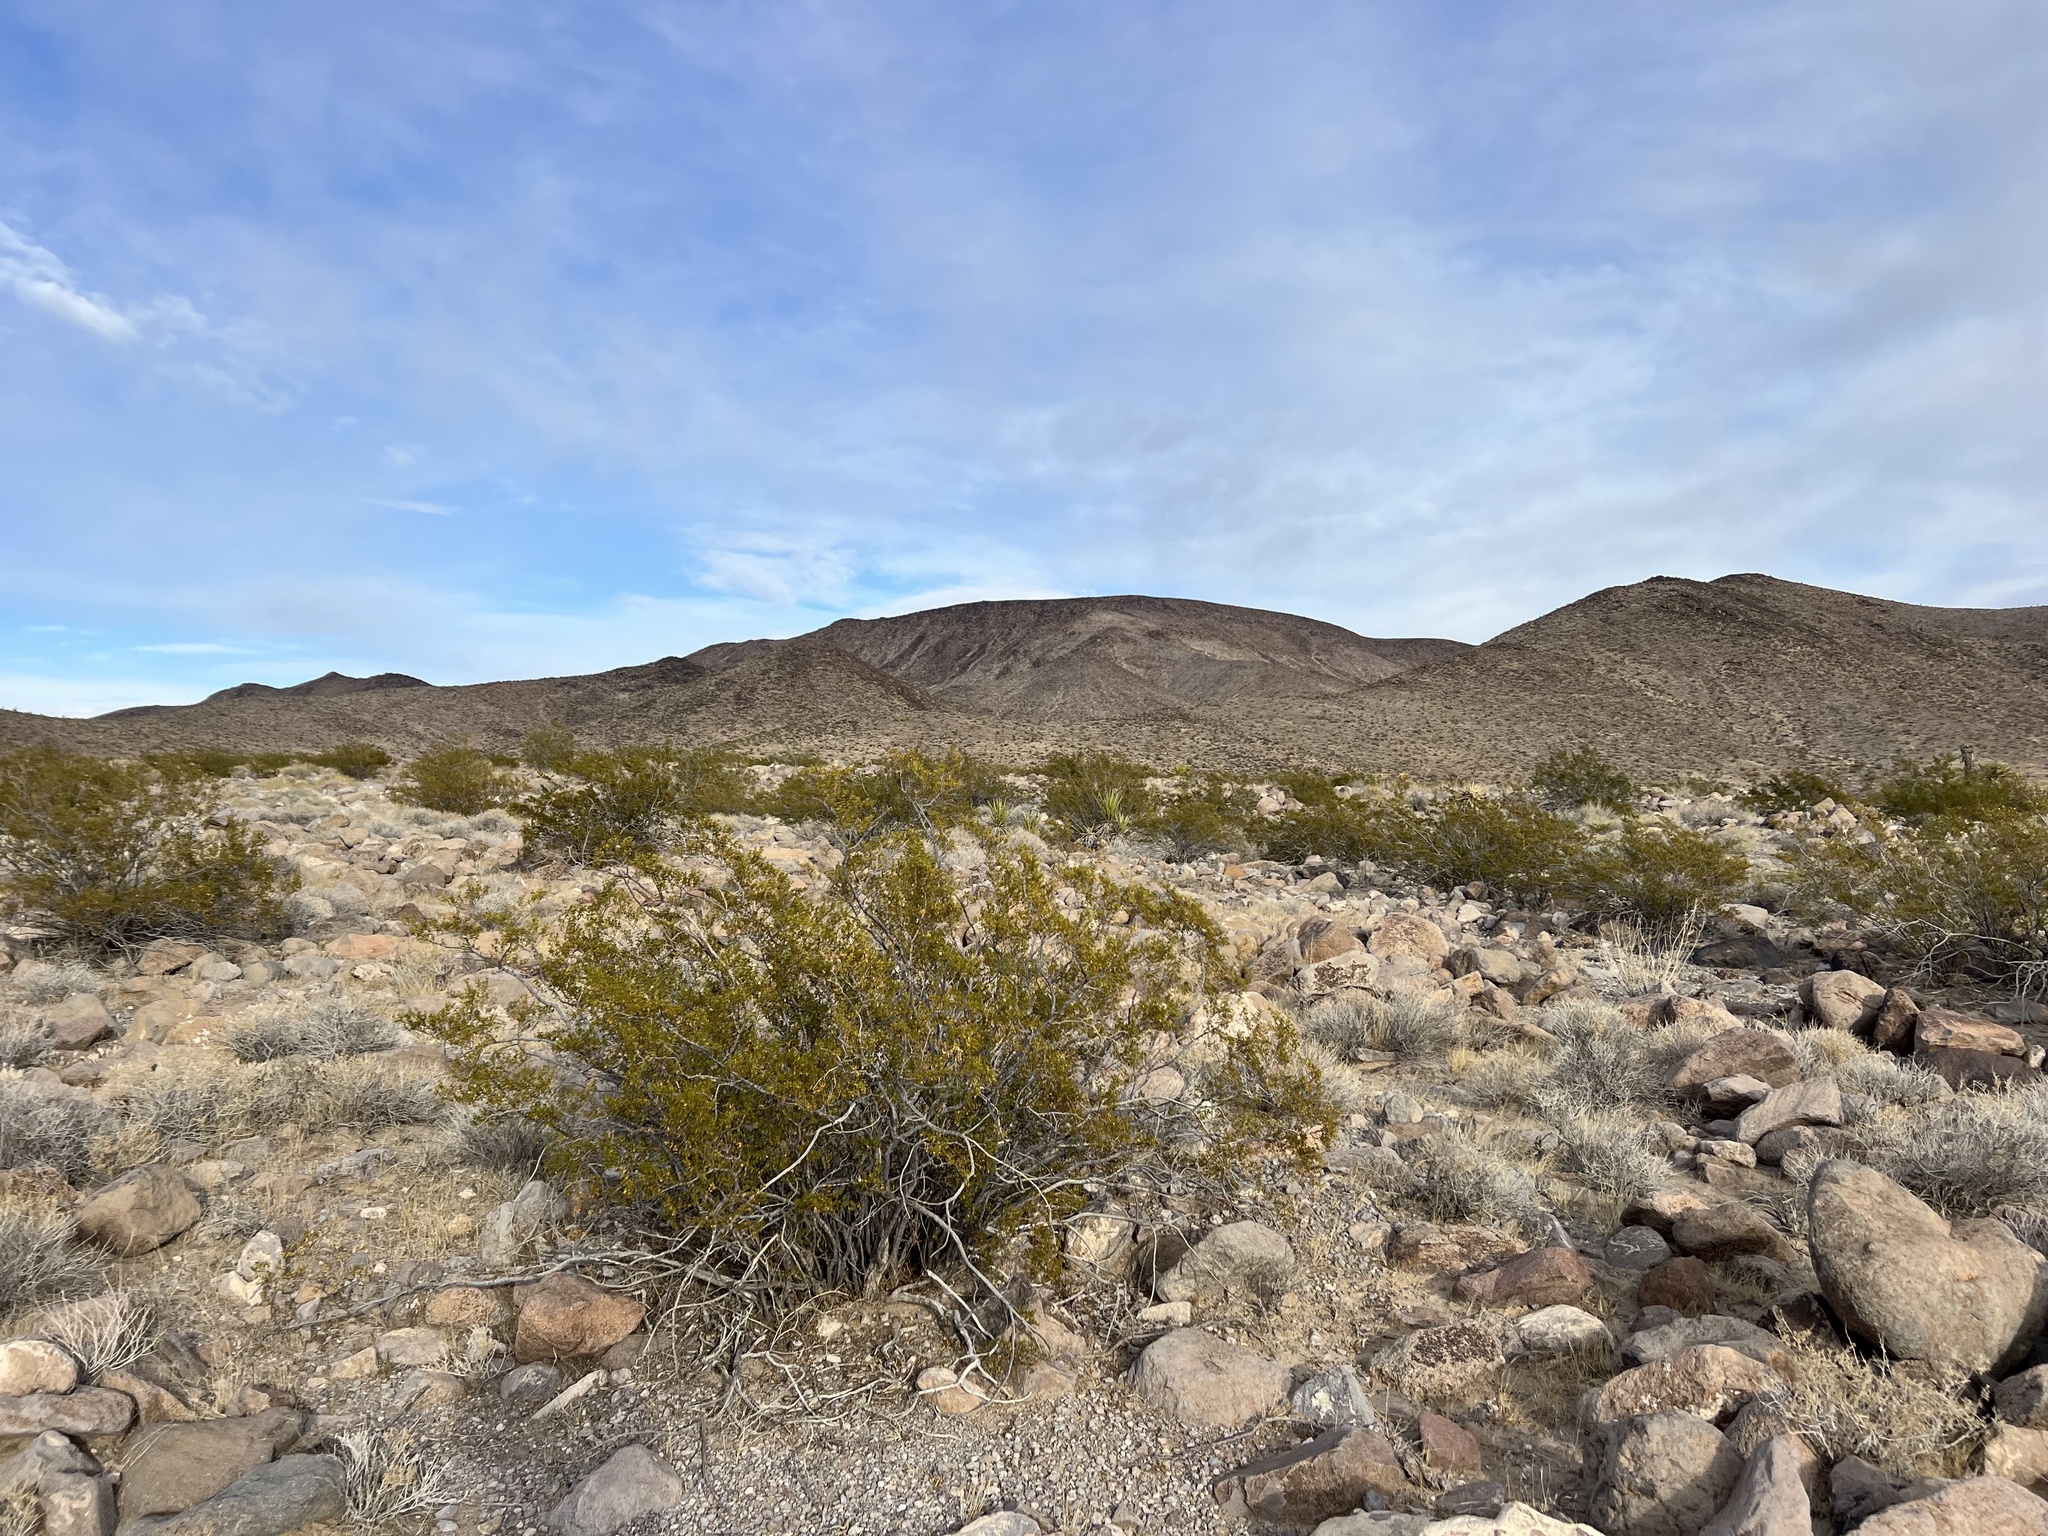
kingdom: Plantae
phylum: Tracheophyta
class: Magnoliopsida
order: Zygophyllales
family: Zygophyllaceae
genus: Larrea
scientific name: Larrea tridentata
